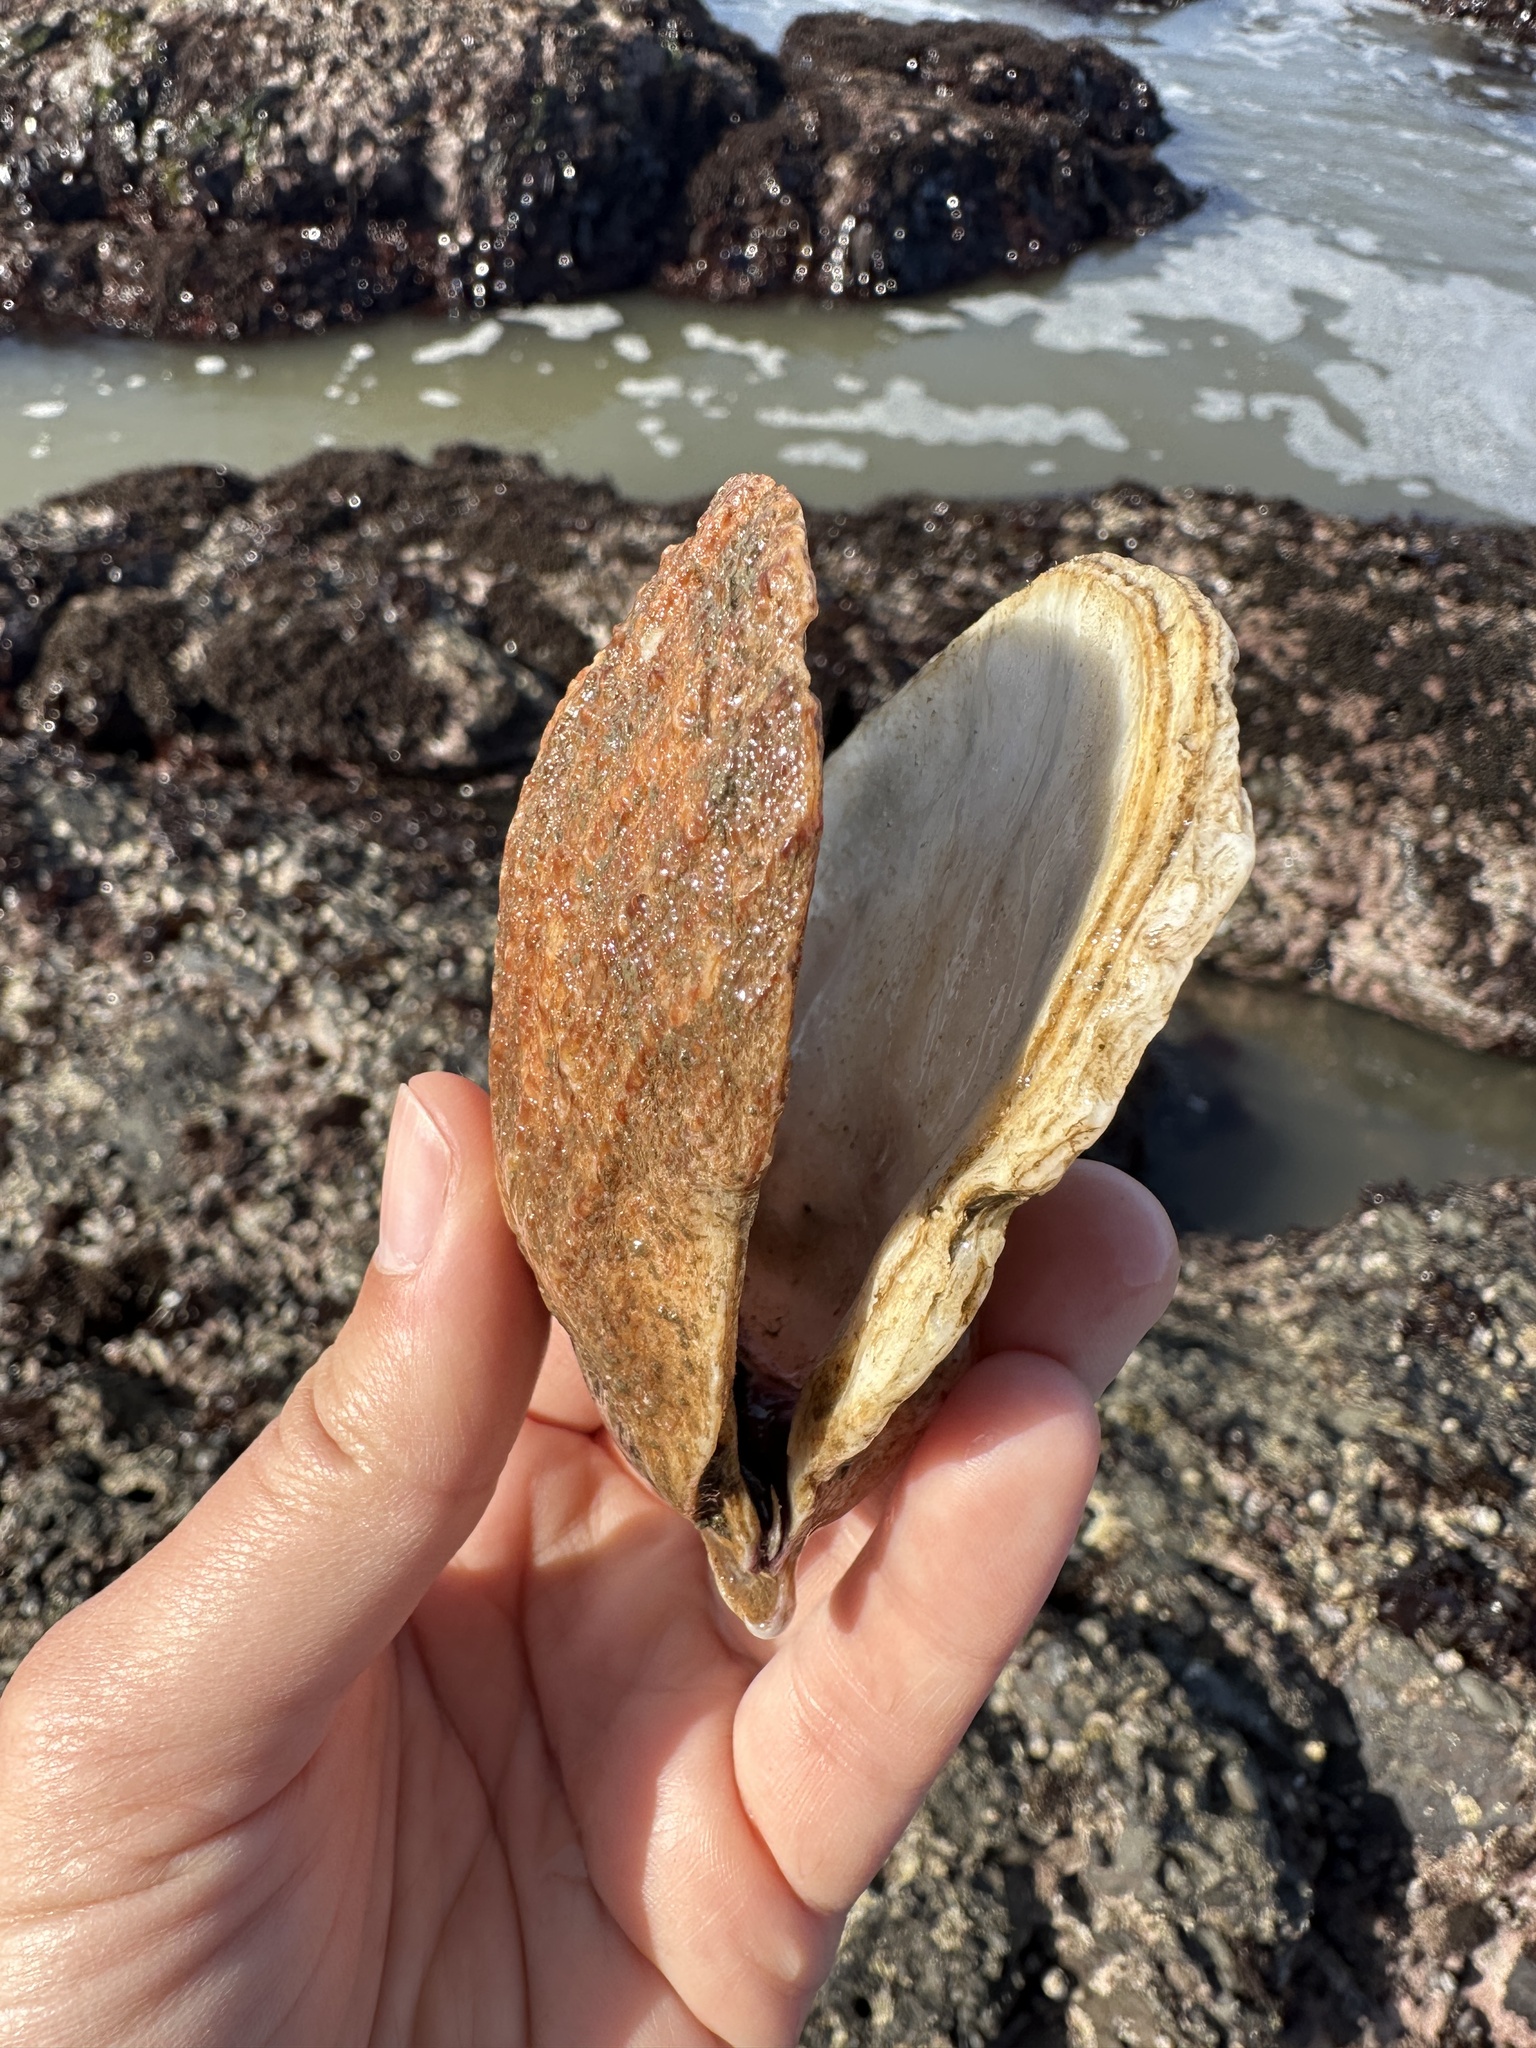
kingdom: Animalia
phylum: Mollusca
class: Bivalvia
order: Pectinida
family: Pectinidae
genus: Crassadoma
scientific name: Crassadoma gigantea
